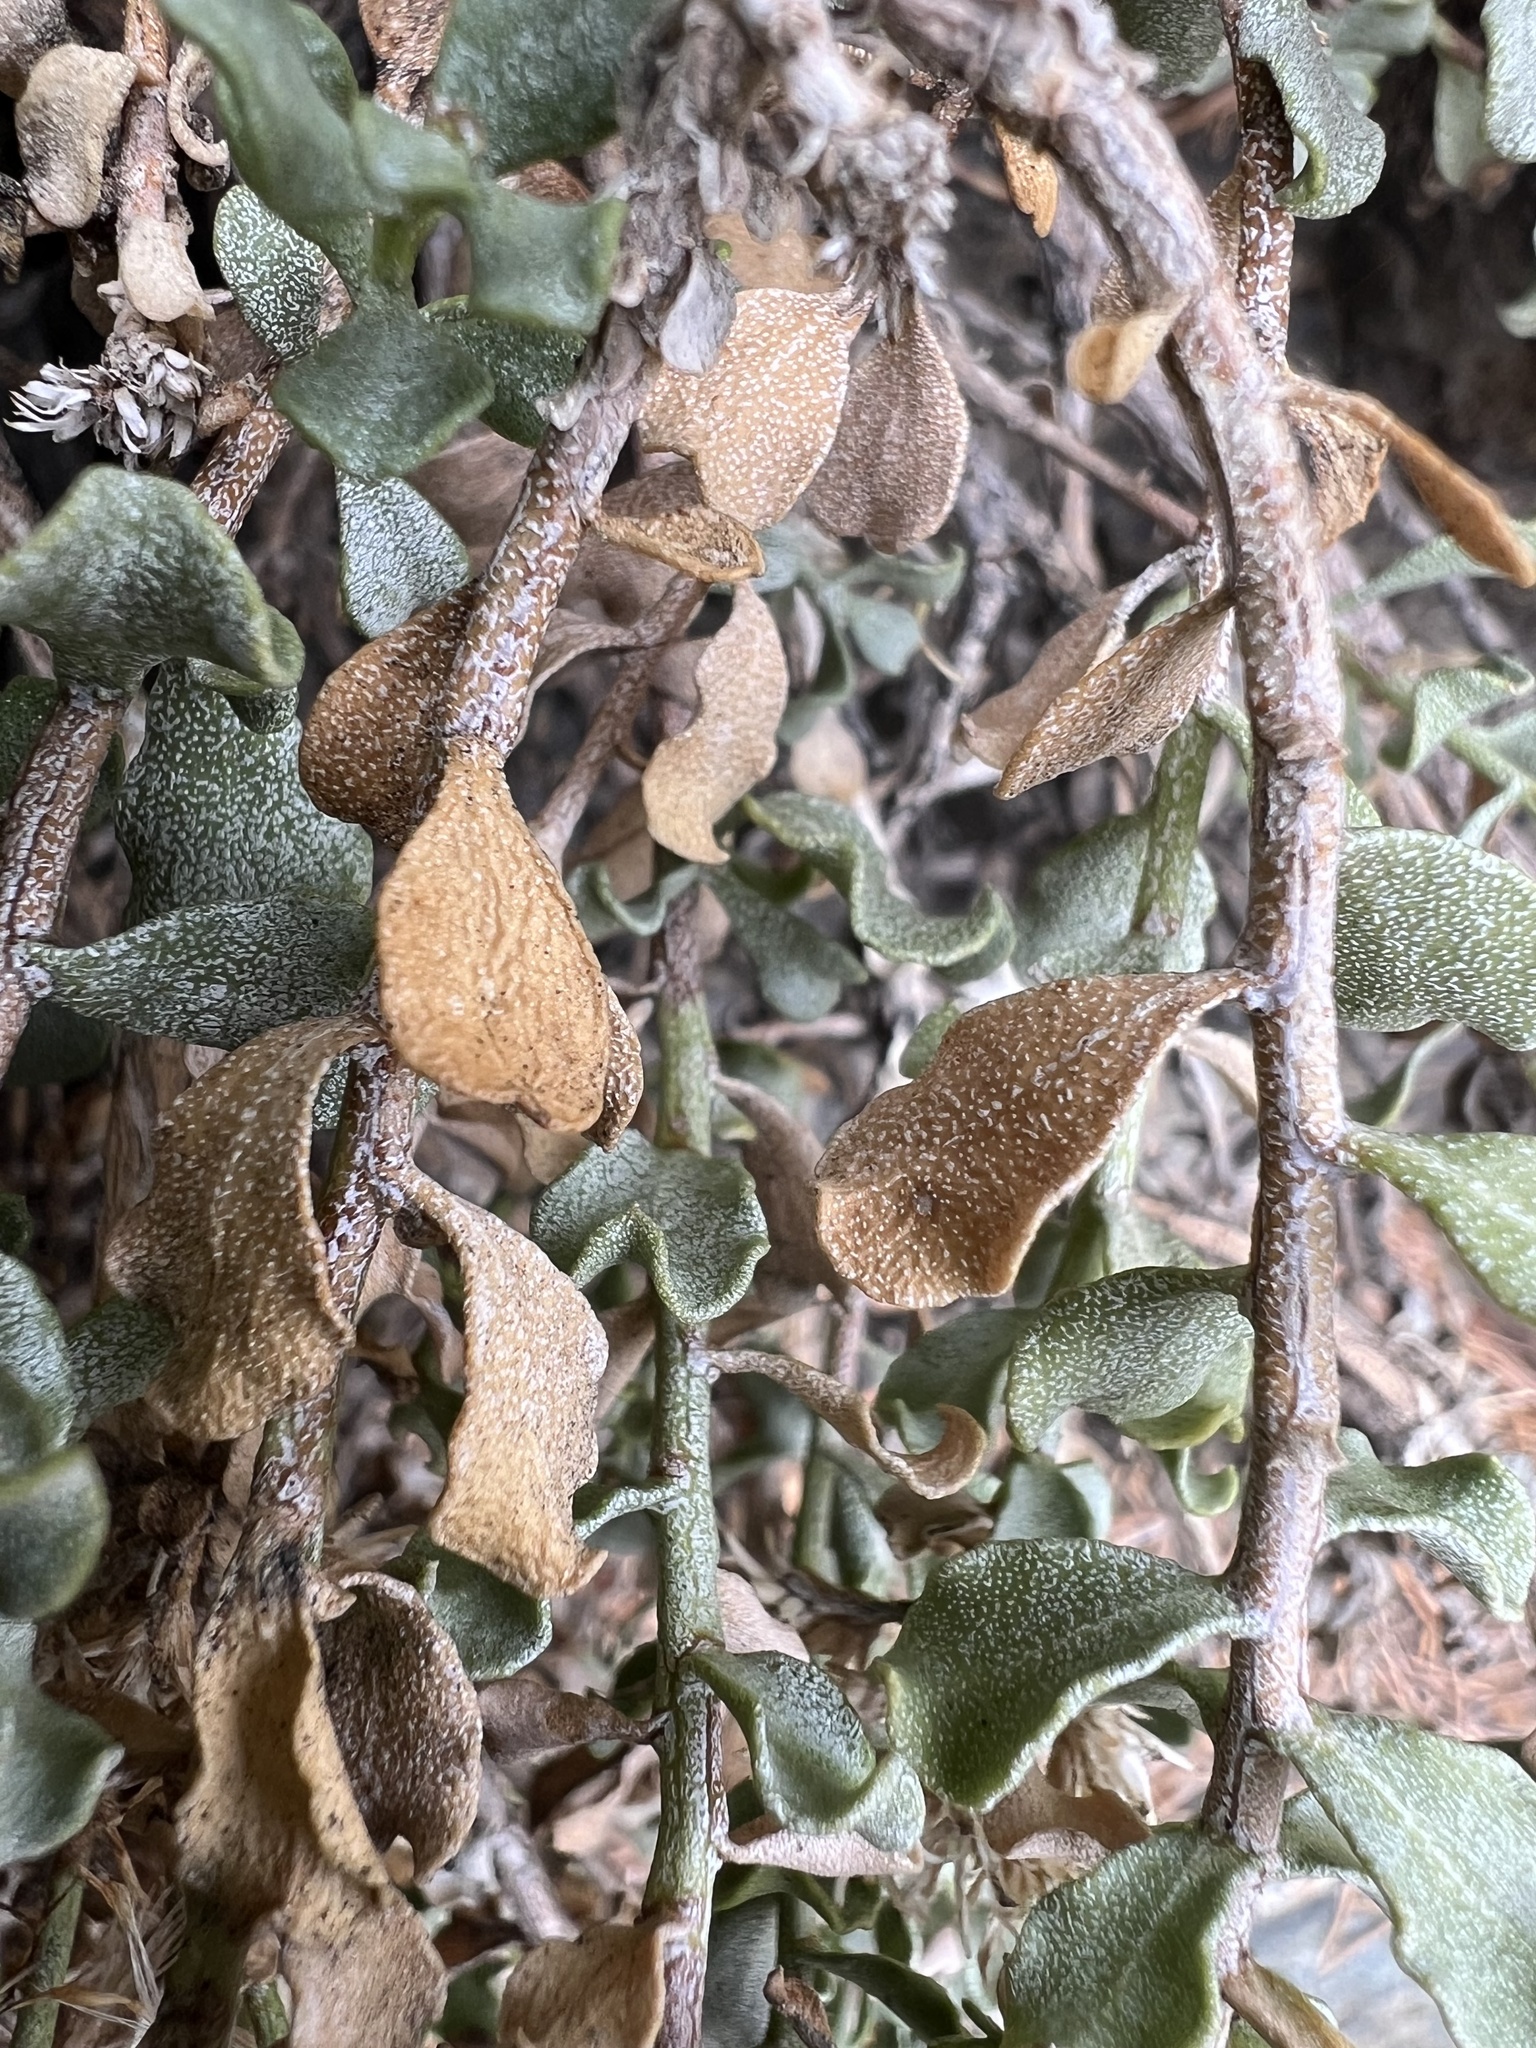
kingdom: Plantae
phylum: Tracheophyta
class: Magnoliopsida
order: Asterales
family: Asteraceae
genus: Ericameria
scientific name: Ericameria cuneata
